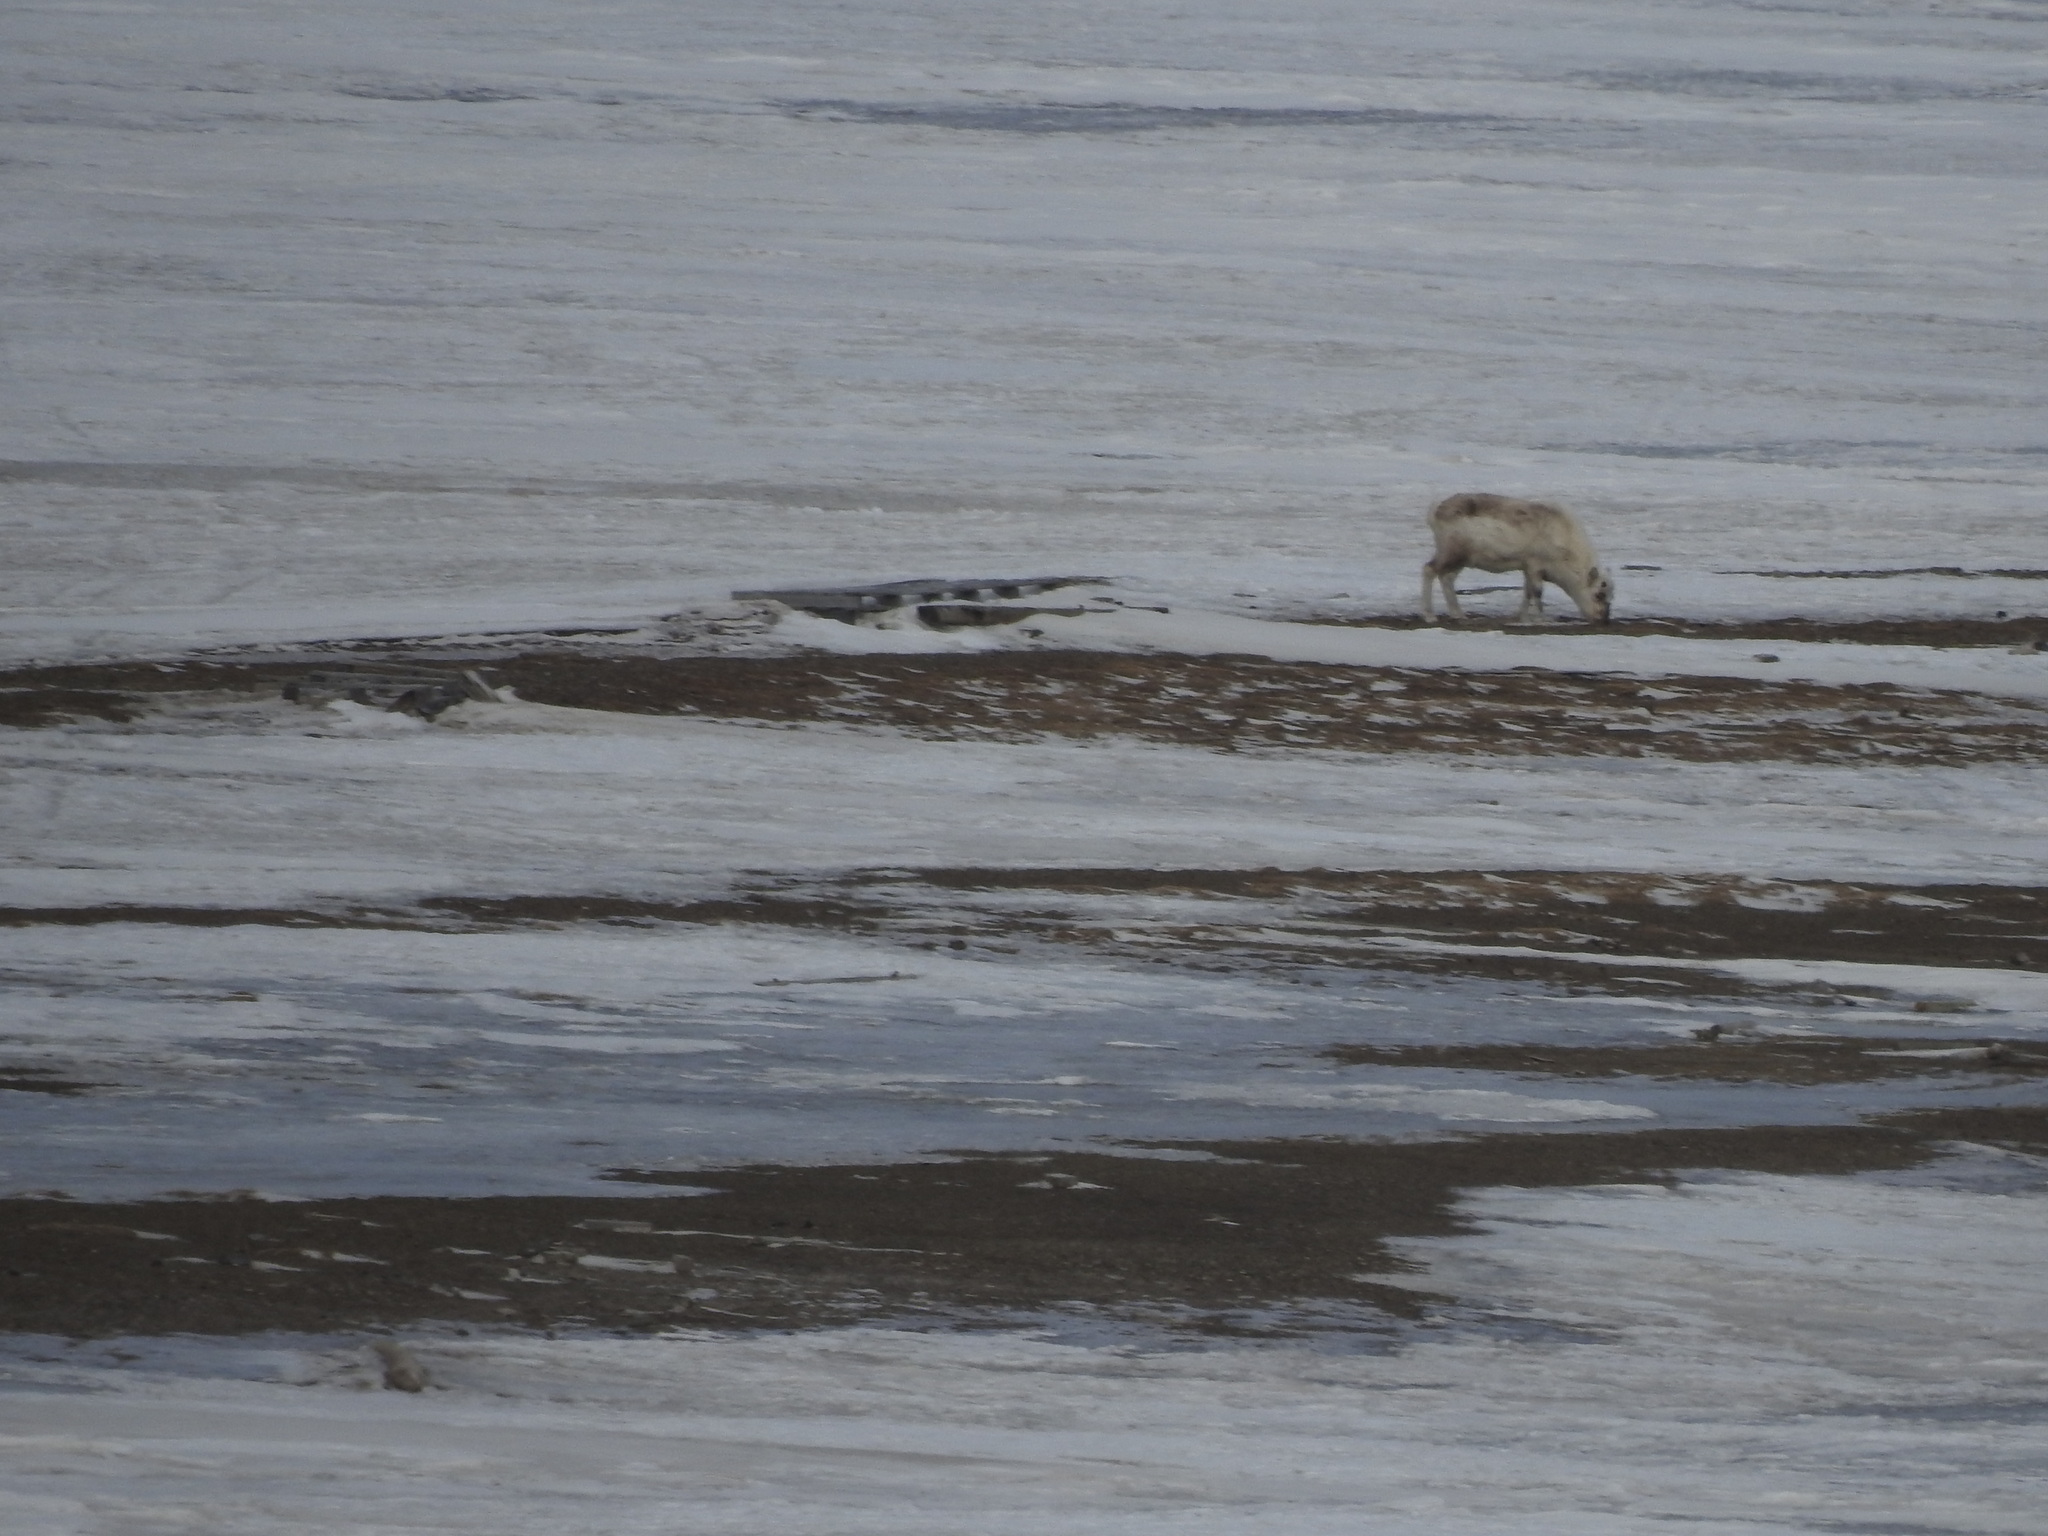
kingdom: Animalia
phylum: Chordata
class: Mammalia
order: Artiodactyla
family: Cervidae
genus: Rangifer
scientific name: Rangifer tarandus
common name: Reindeer
